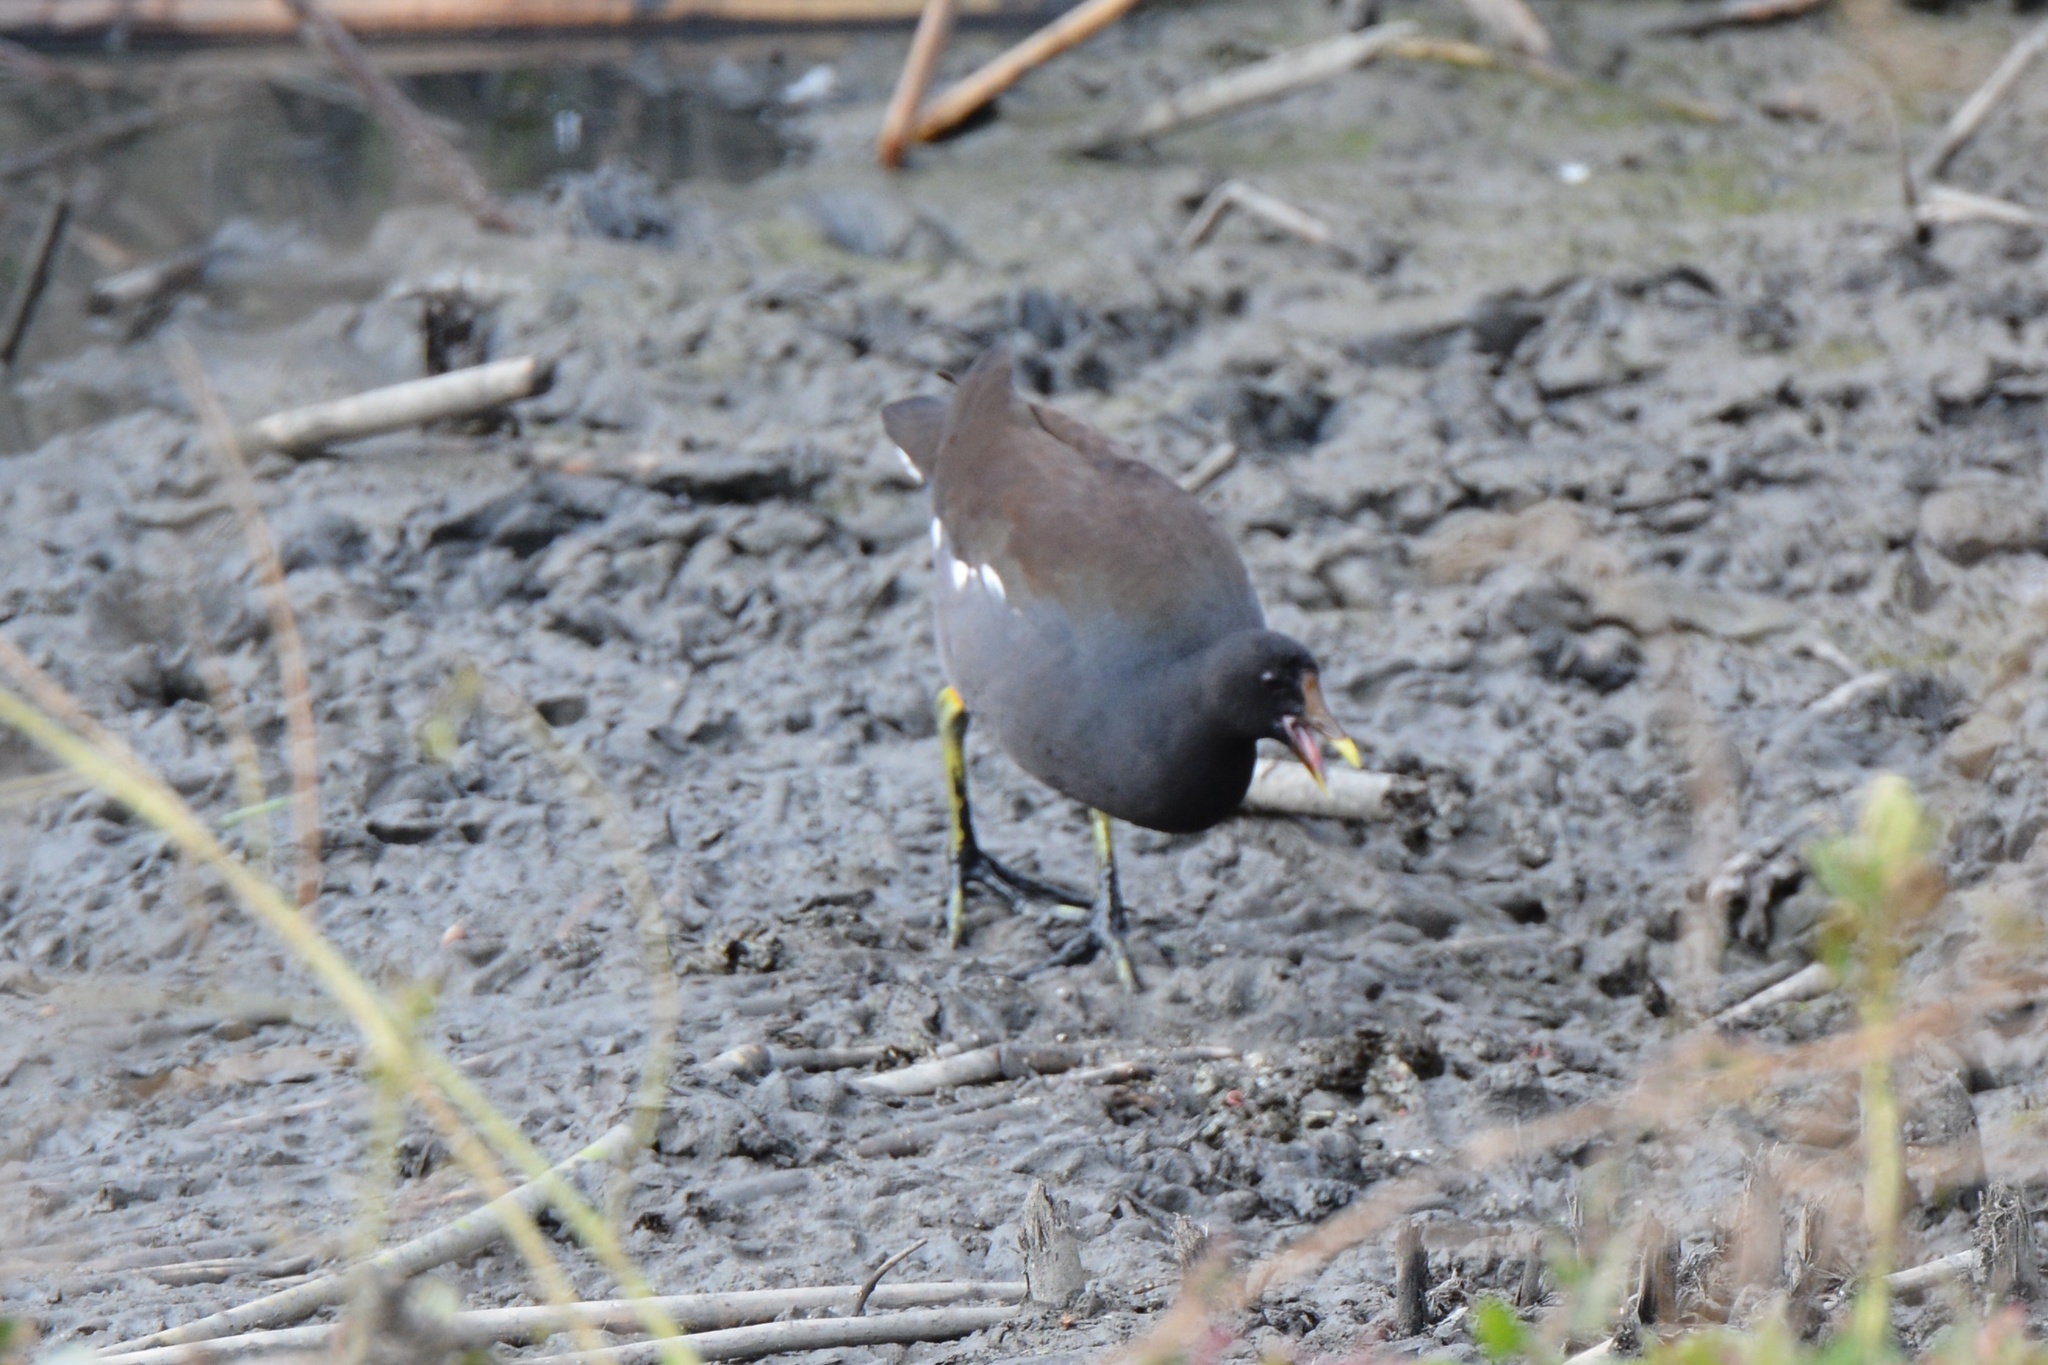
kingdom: Animalia
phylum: Chordata
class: Aves
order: Gruiformes
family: Rallidae
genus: Gallinula
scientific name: Gallinula chloropus
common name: Common moorhen
